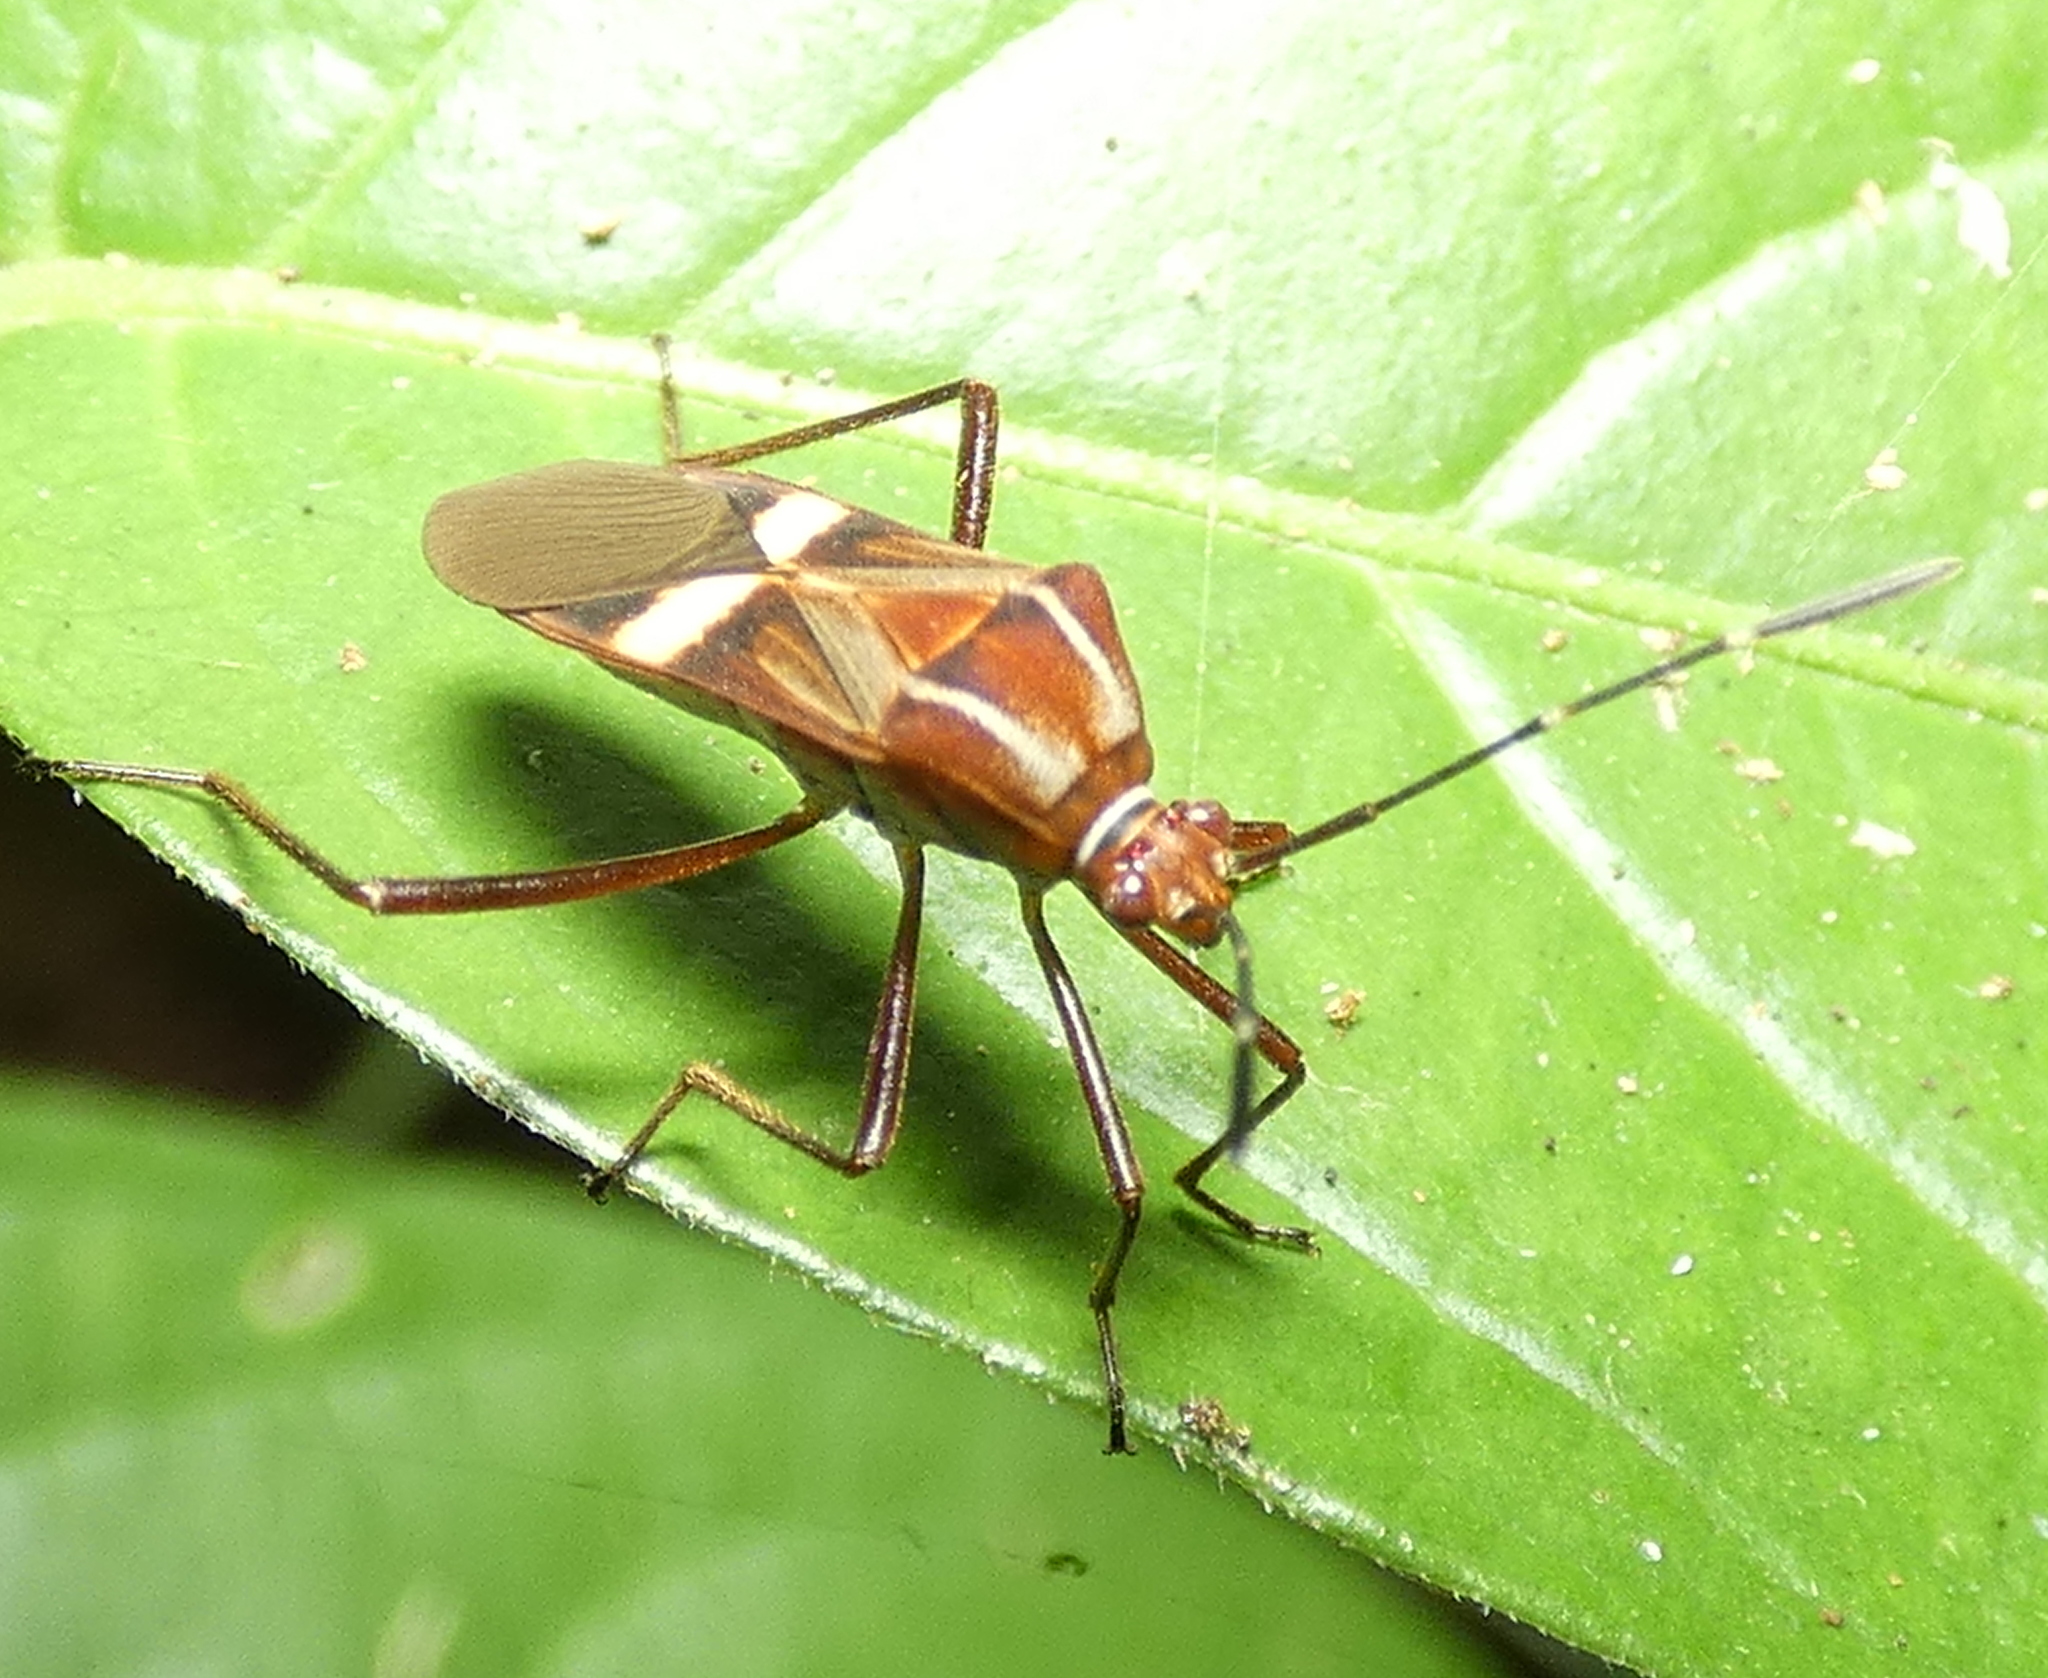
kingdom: Animalia
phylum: Arthropoda
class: Insecta
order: Hemiptera
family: Coreidae
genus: Hypselonotus
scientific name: Hypselonotus interruptus
